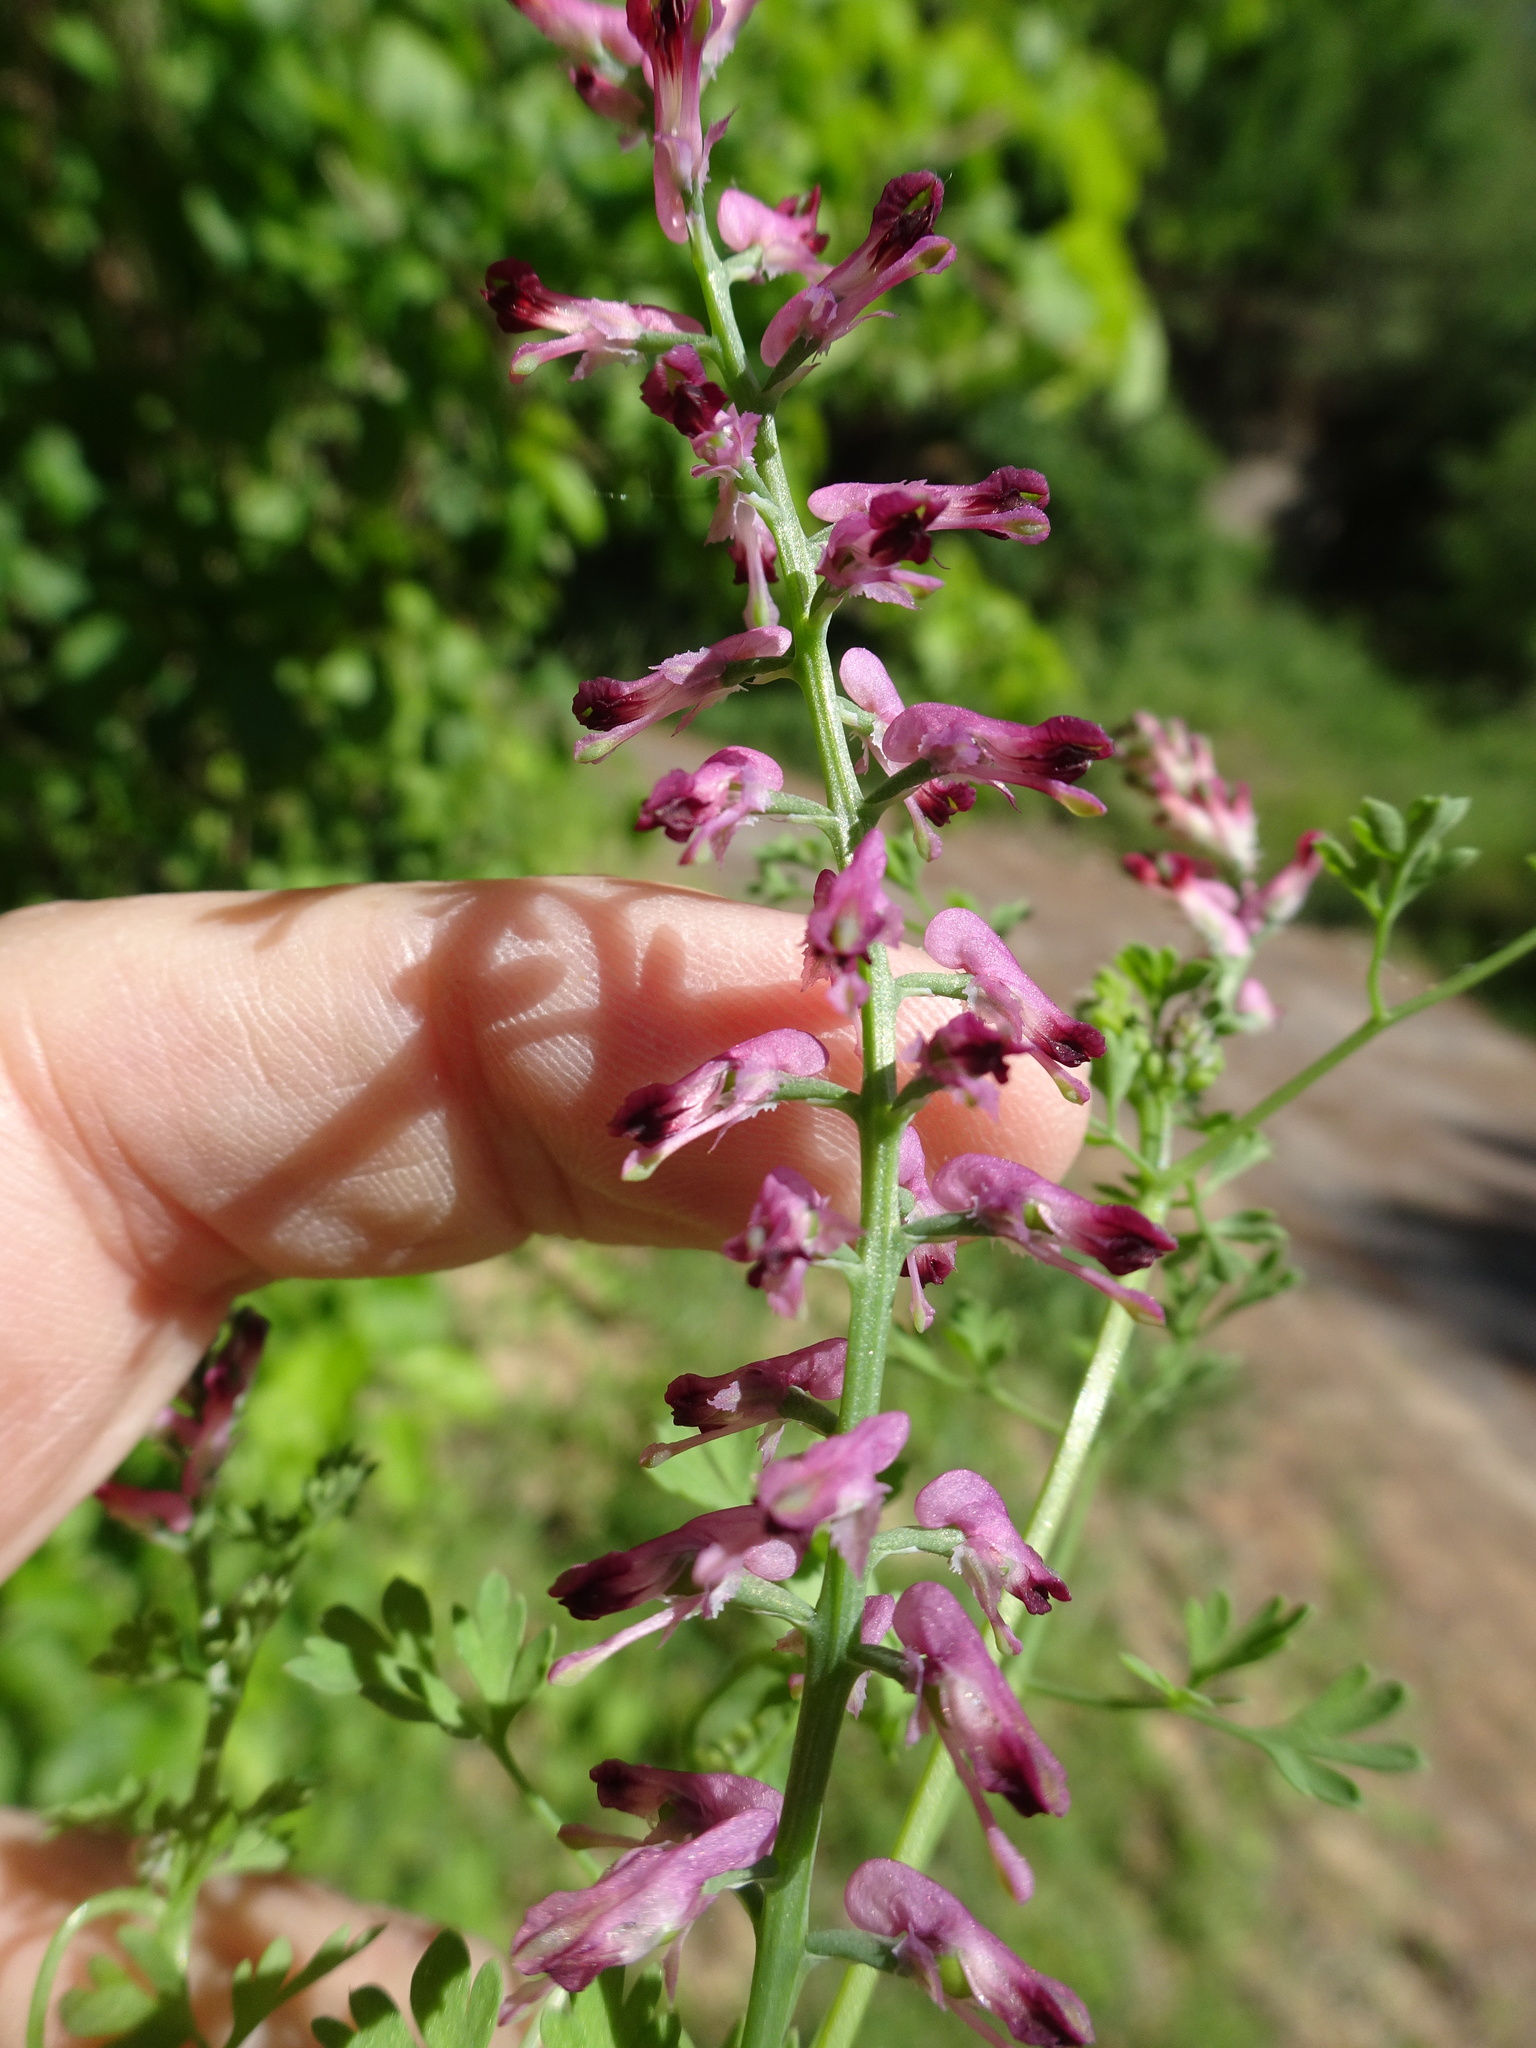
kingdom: Plantae
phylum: Tracheophyta
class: Magnoliopsida
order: Ranunculales
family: Papaveraceae
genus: Fumaria
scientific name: Fumaria officinalis
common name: Common fumitory
